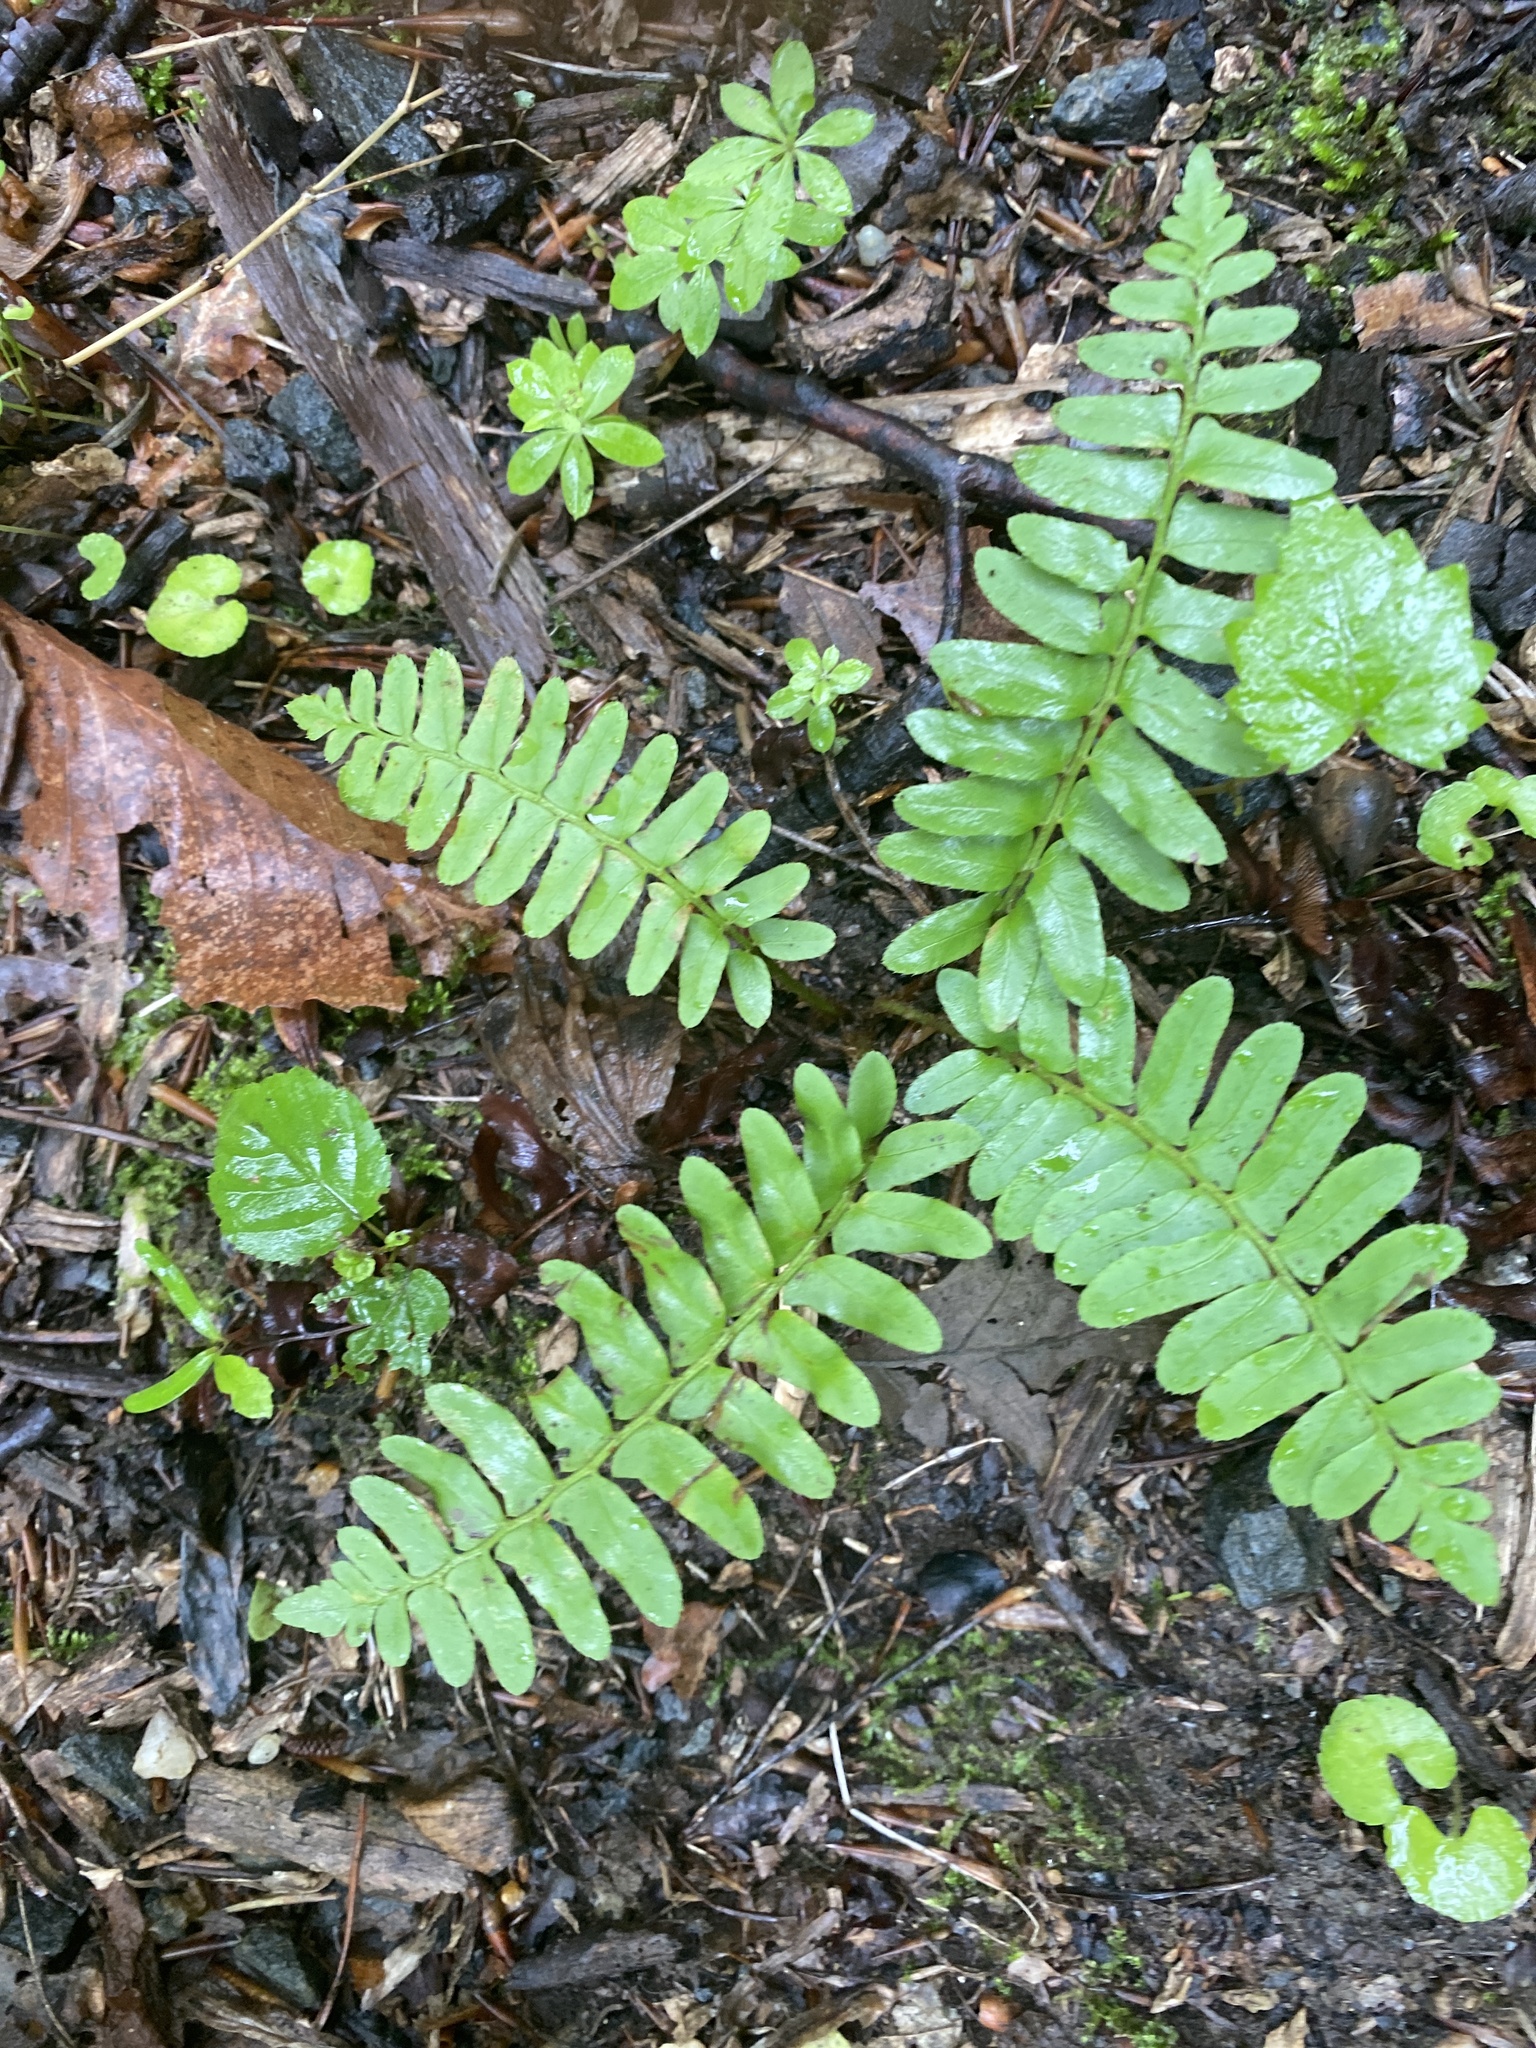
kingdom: Plantae
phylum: Tracheophyta
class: Polypodiopsida
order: Polypodiales
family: Dryopteridaceae
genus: Polystichum
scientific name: Polystichum acrostichoides
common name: Christmas fern
